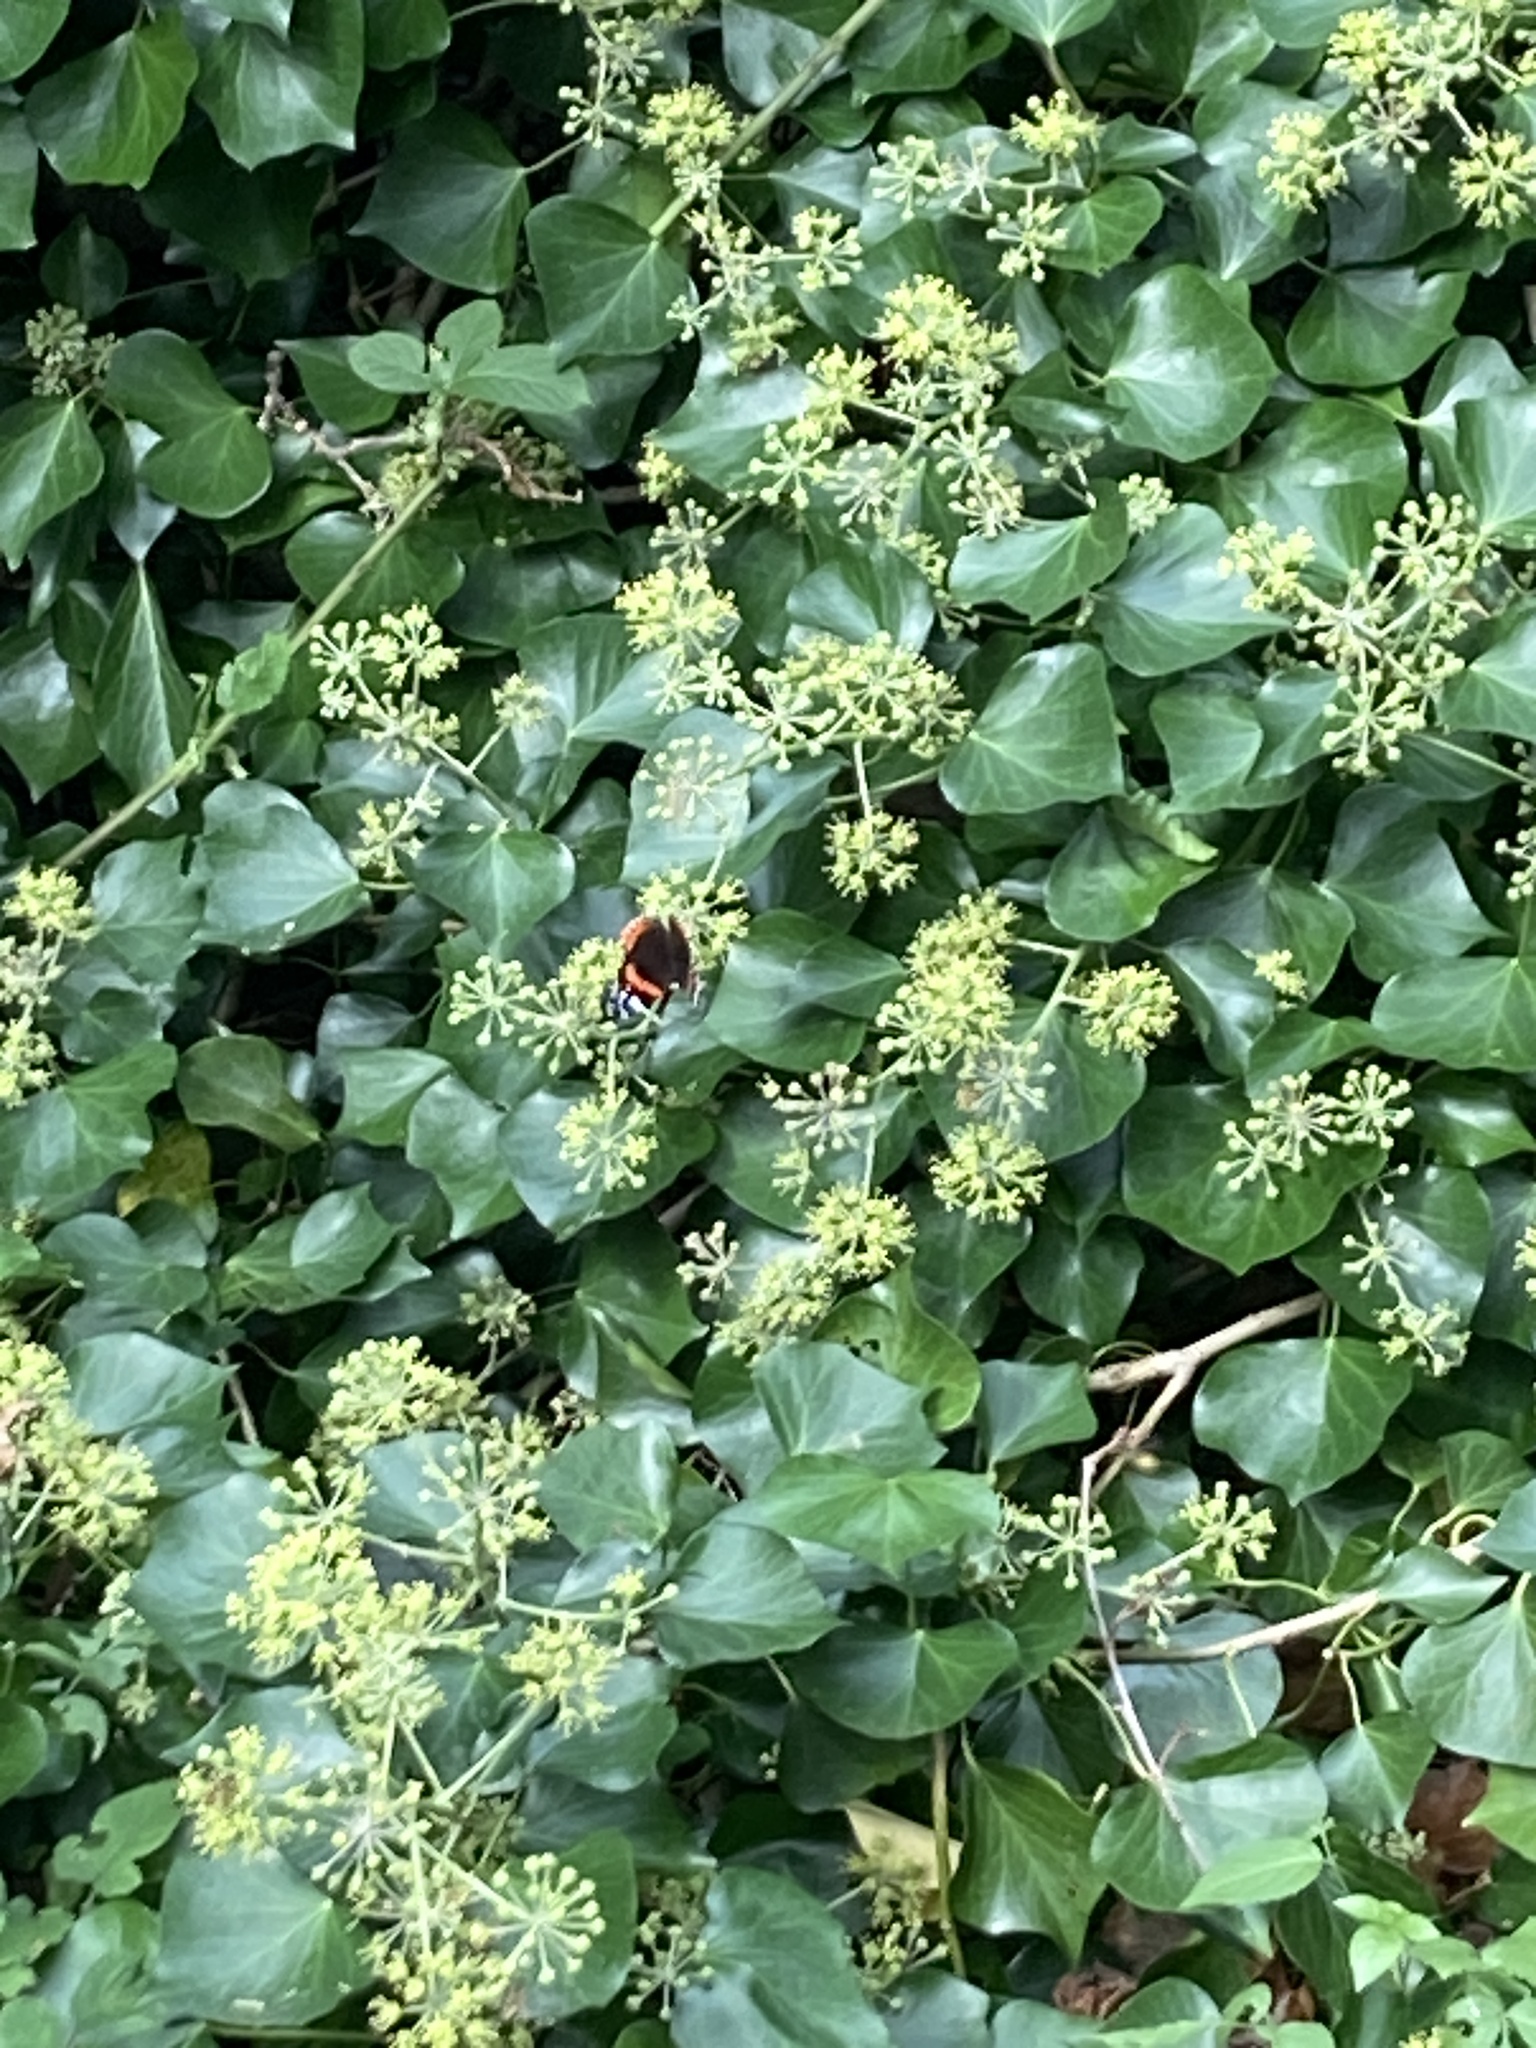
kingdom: Animalia
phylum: Arthropoda
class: Insecta
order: Lepidoptera
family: Nymphalidae
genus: Vanessa
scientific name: Vanessa atalanta
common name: Red admiral
